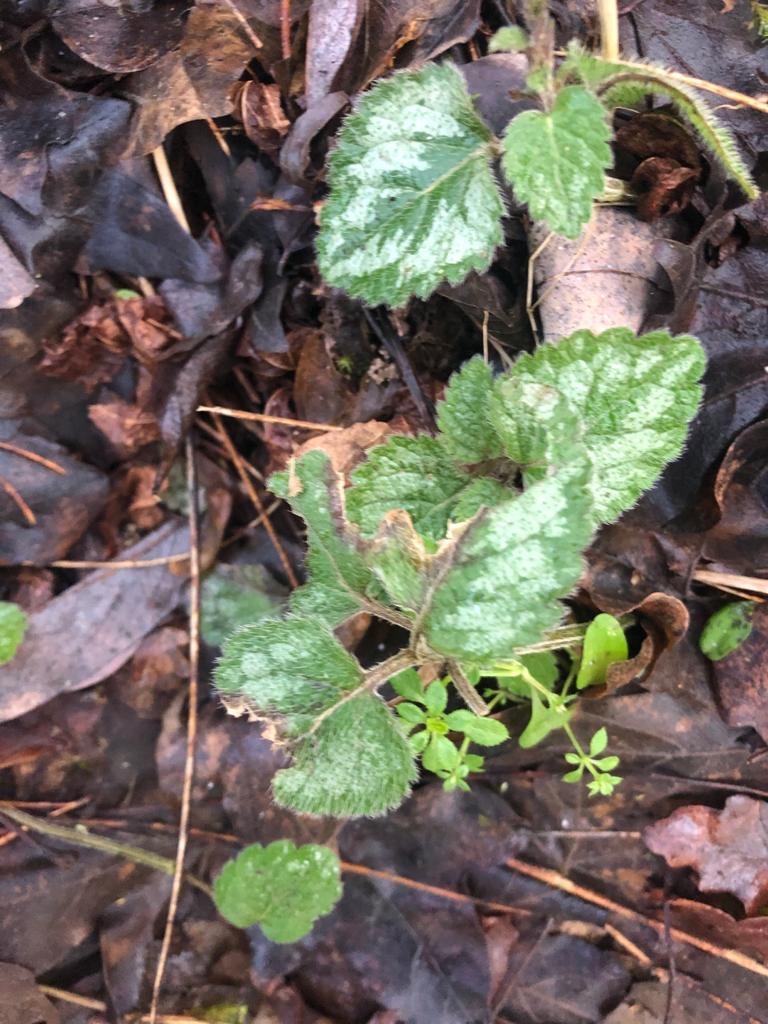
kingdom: Plantae
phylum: Tracheophyta
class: Magnoliopsida
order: Lamiales
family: Lamiaceae
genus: Lamium
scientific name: Lamium galeobdolon
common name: Yellow archangel
